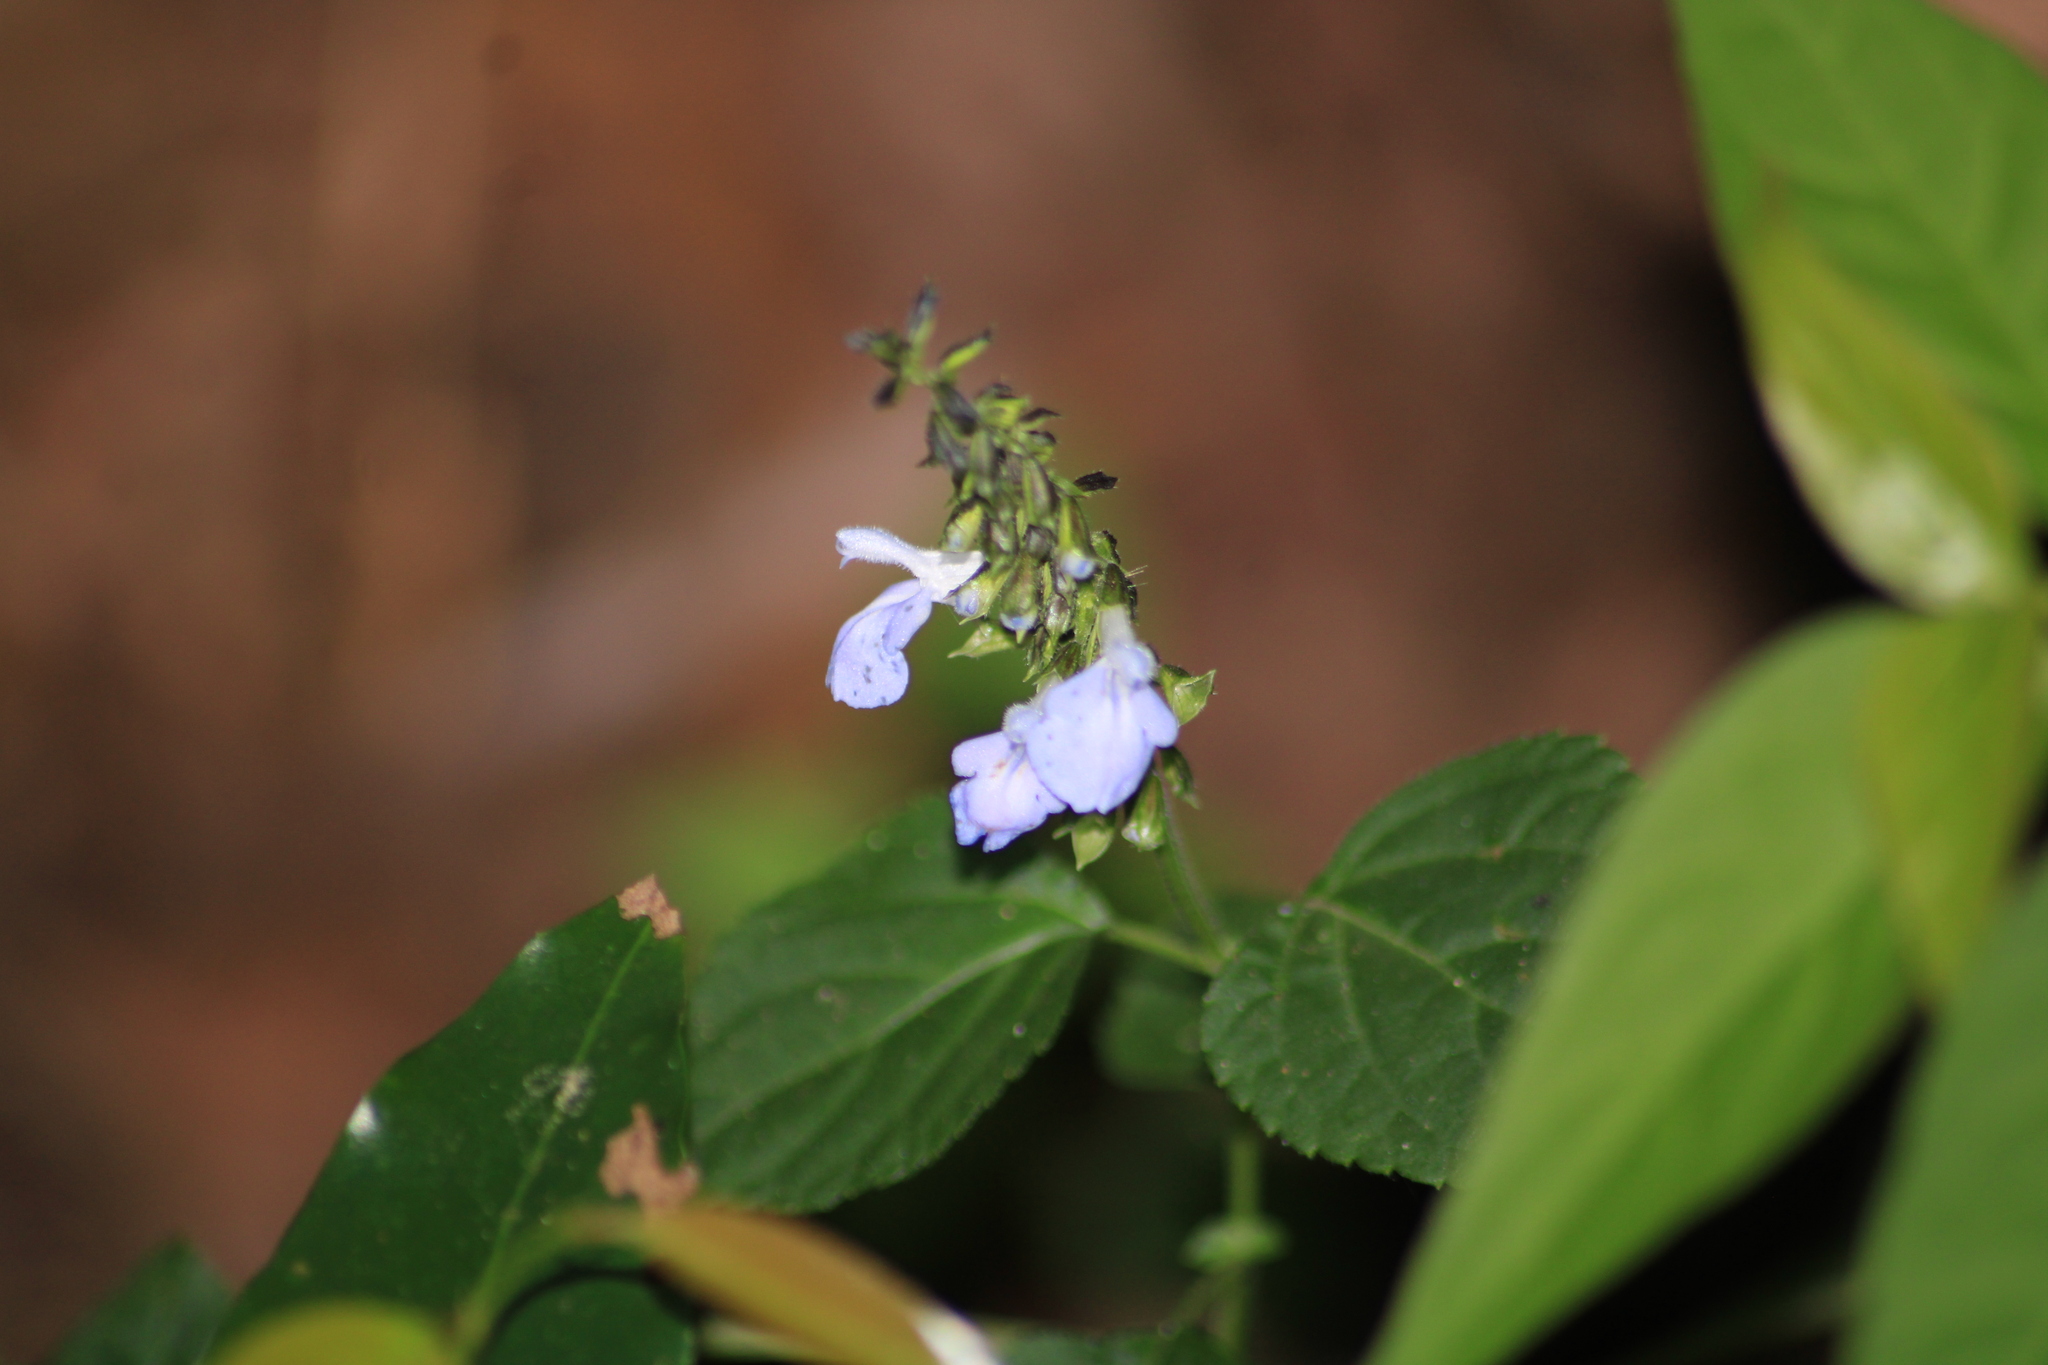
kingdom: Plantae
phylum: Tracheophyta
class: Magnoliopsida
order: Lamiales
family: Lamiaceae
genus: Salvia
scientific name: Salvia languidula
